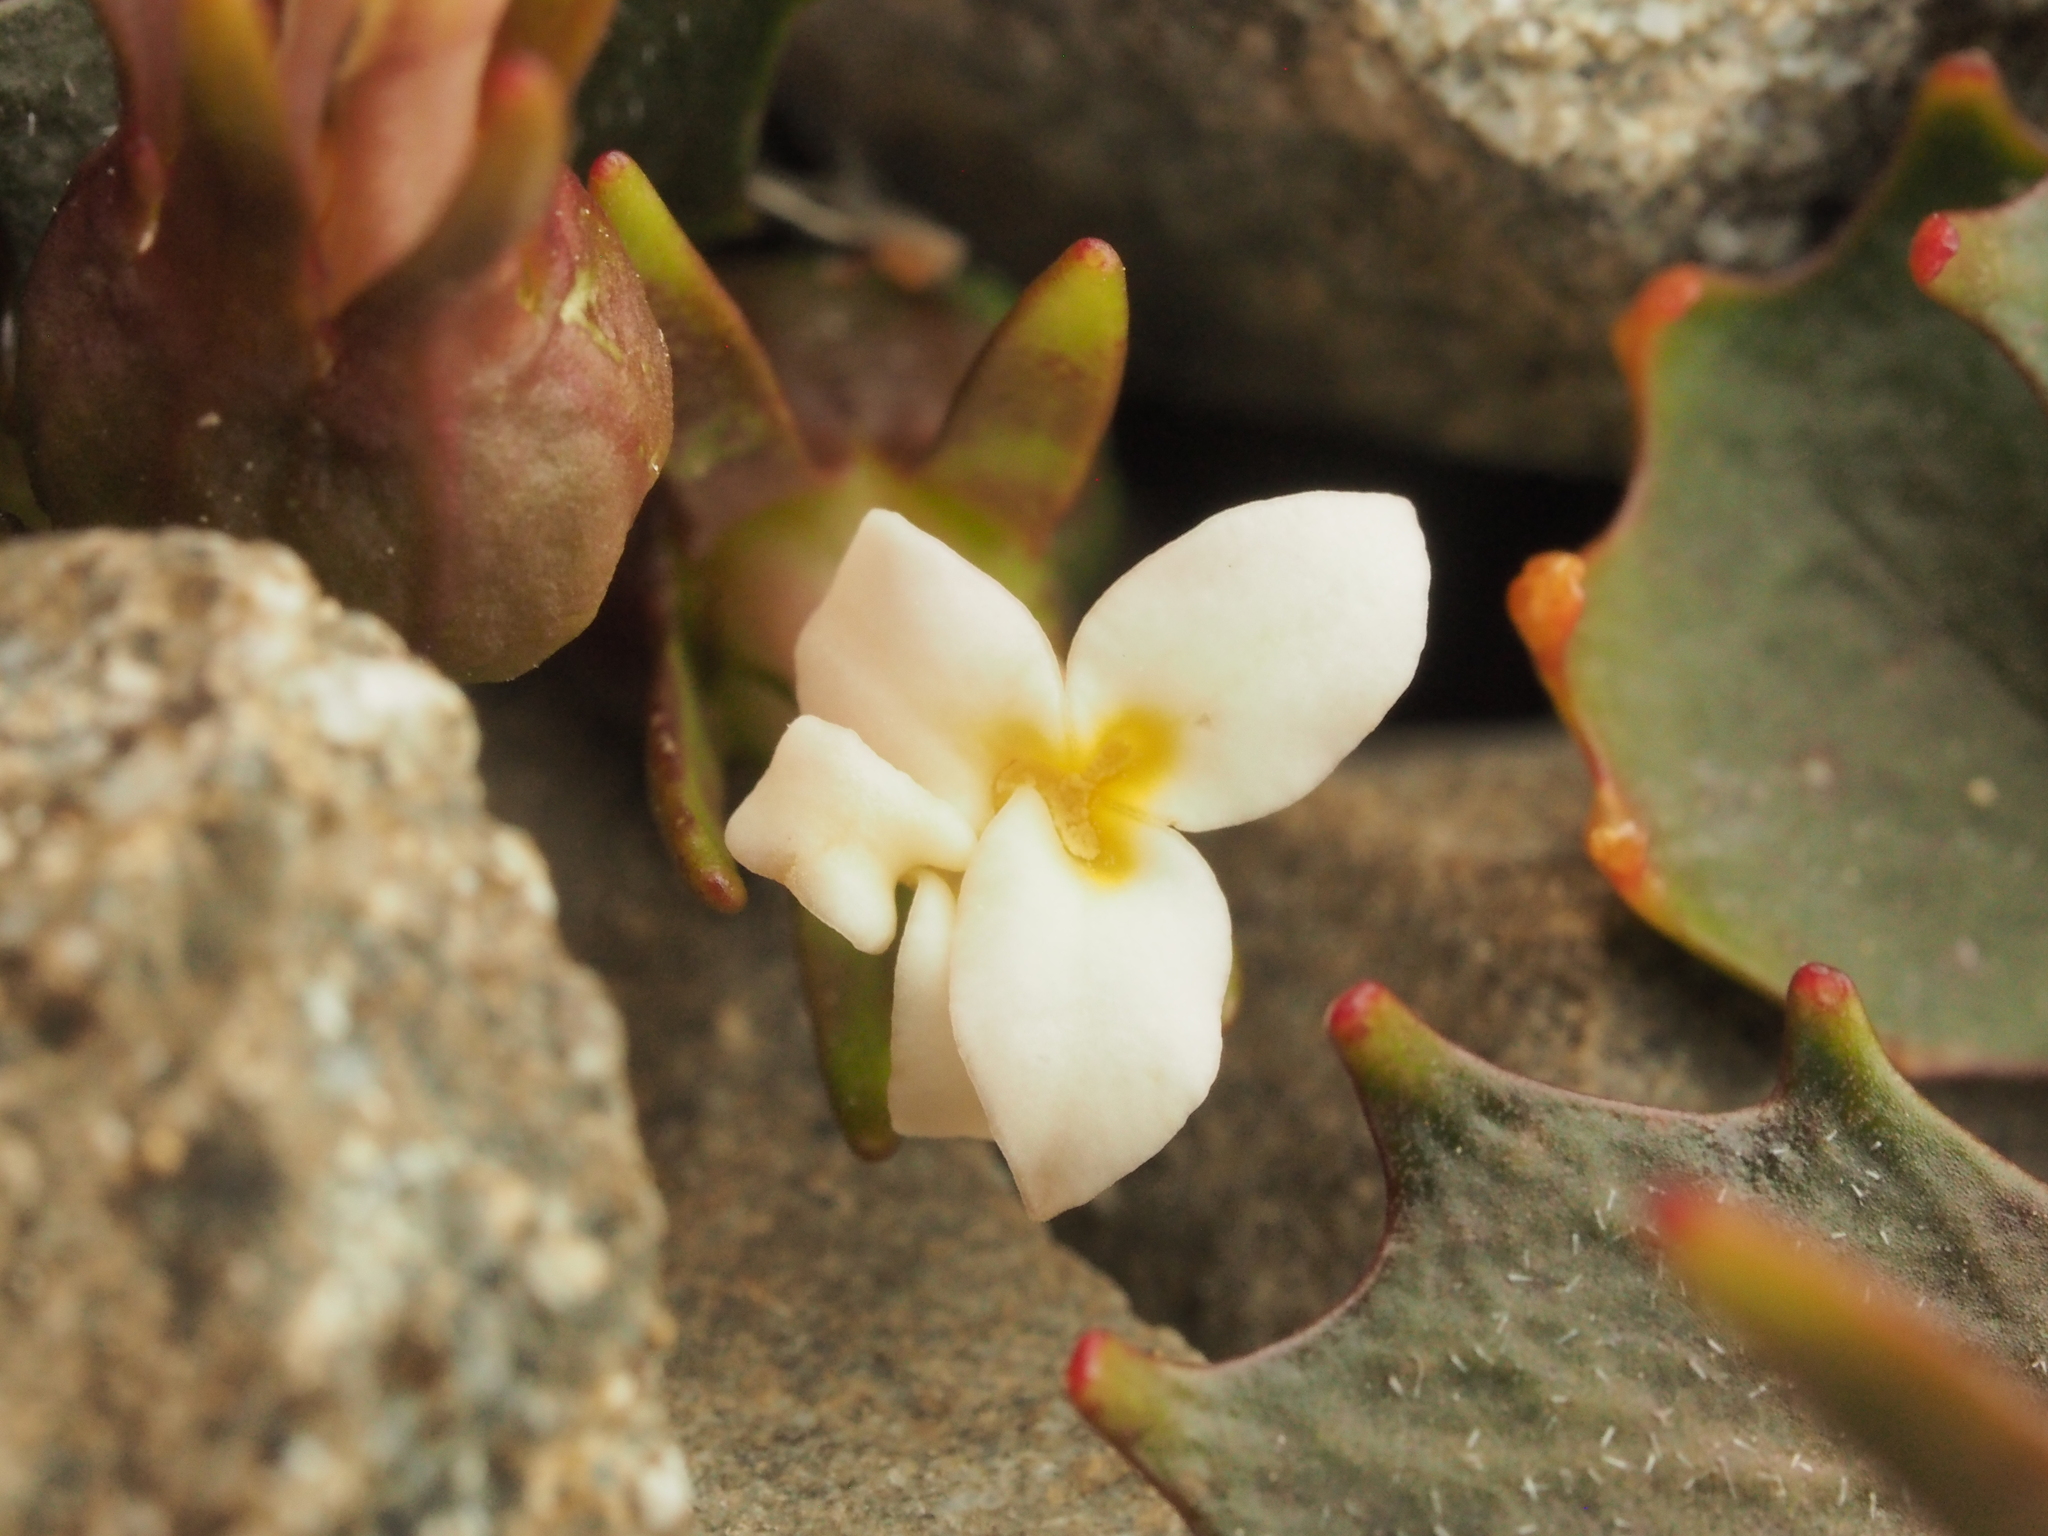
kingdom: Plantae
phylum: Tracheophyta
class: Magnoliopsida
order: Asterales
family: Campanulaceae
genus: Lobelia
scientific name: Lobelia roughii
